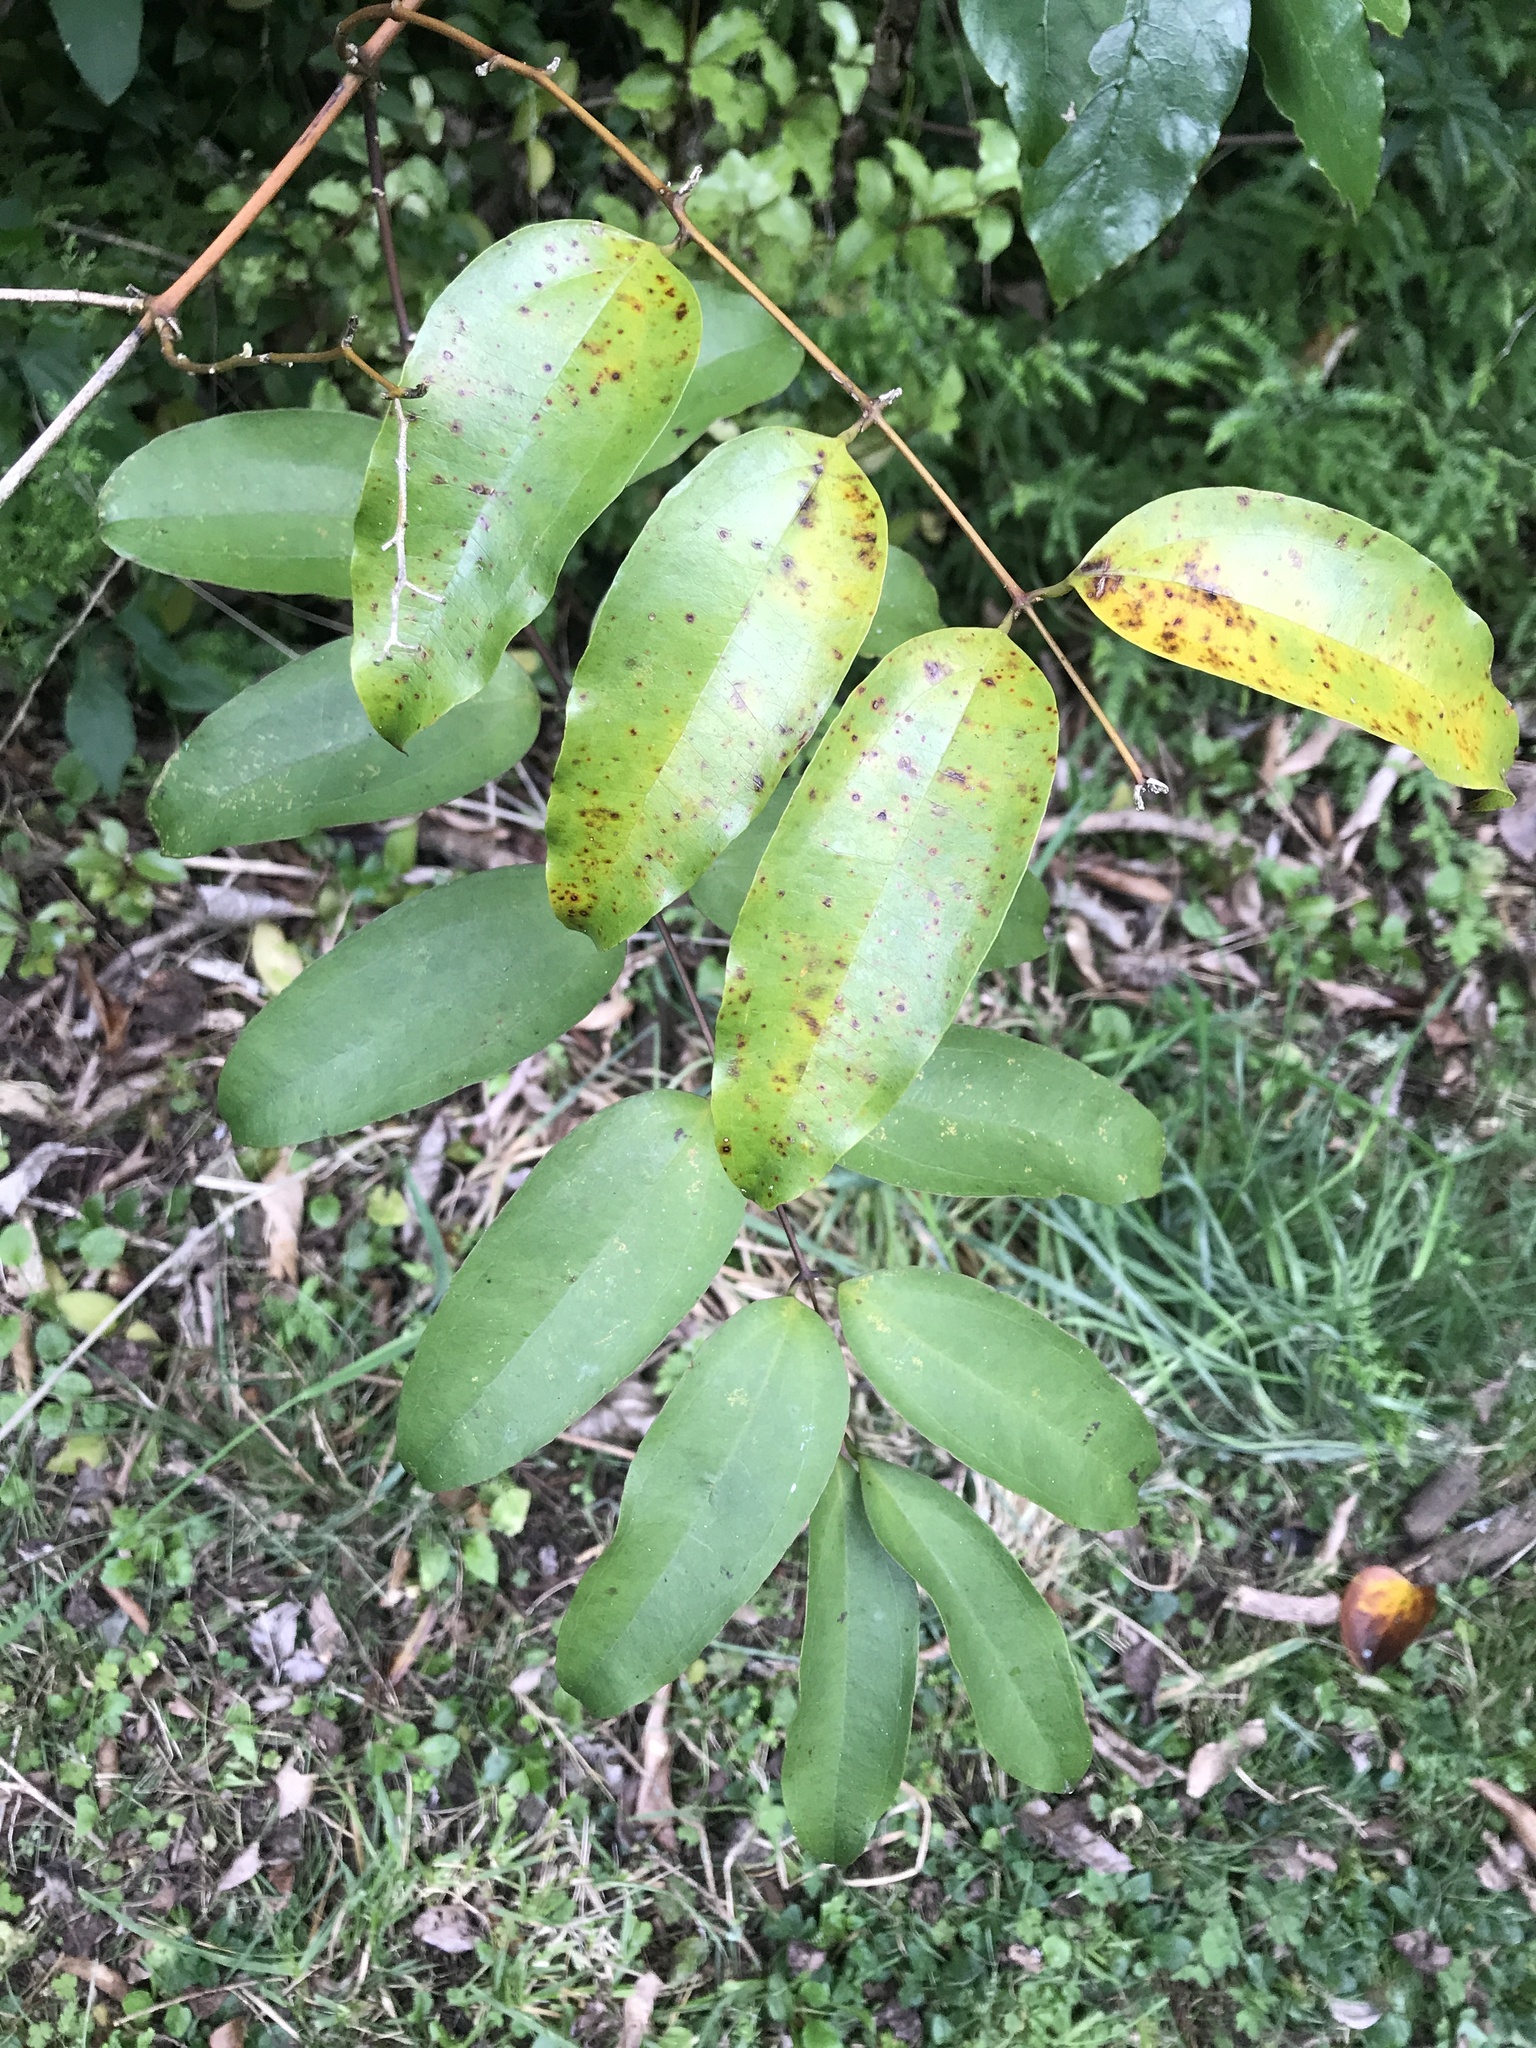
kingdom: Plantae
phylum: Tracheophyta
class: Liliopsida
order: Liliales
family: Ripogonaceae
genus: Ripogonum
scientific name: Ripogonum scandens
